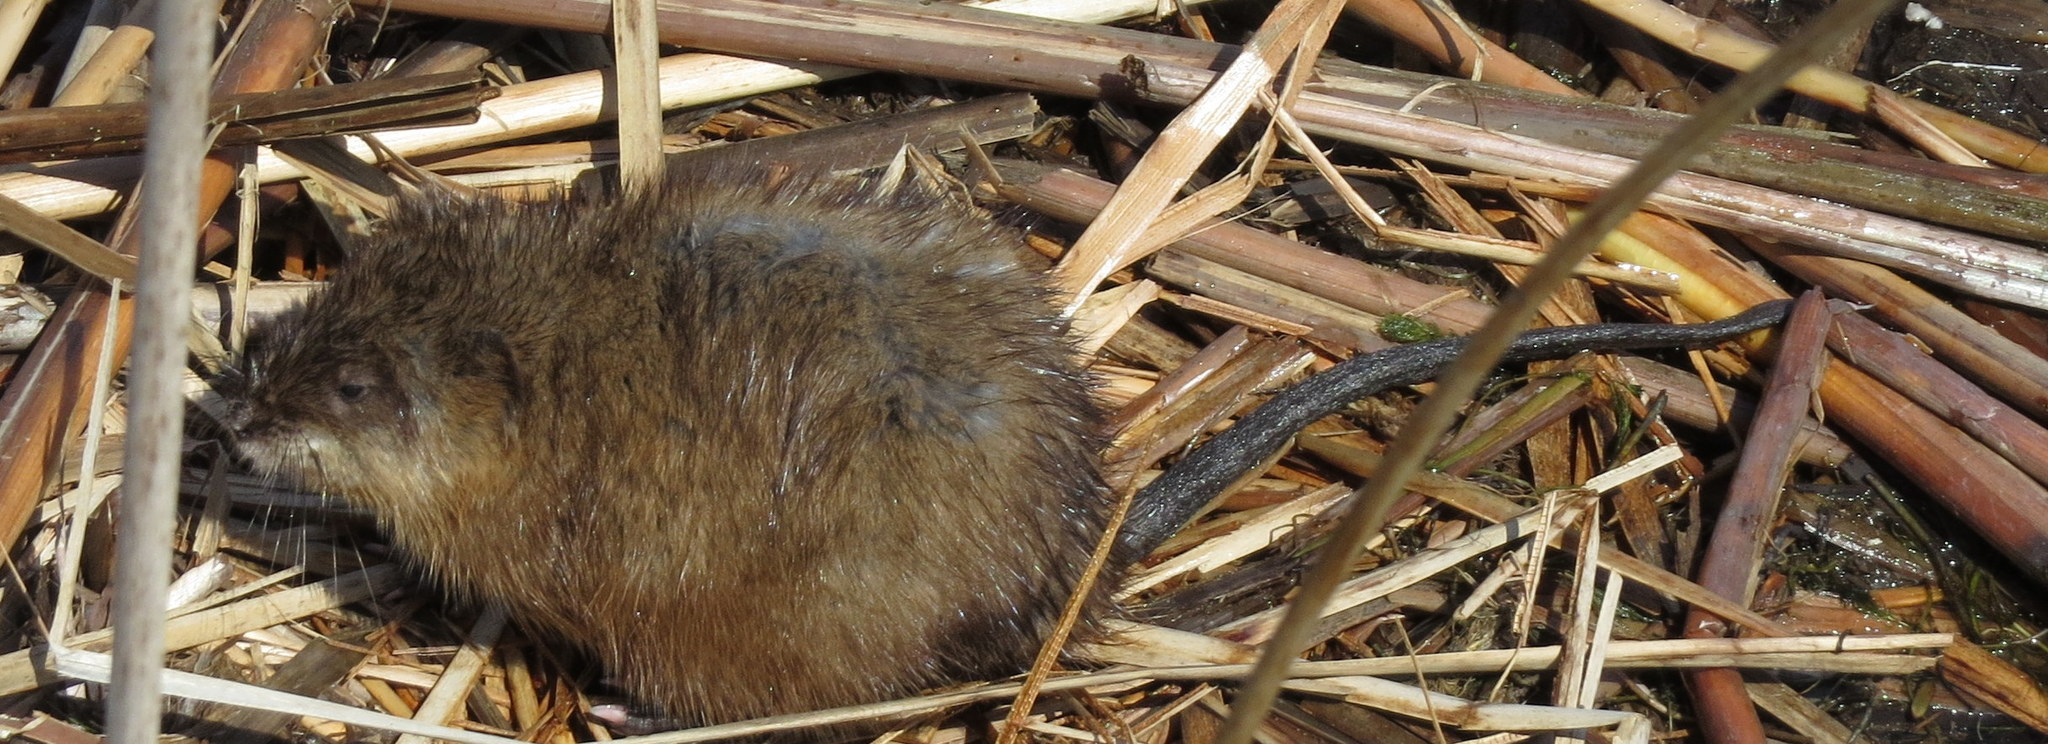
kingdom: Animalia
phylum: Chordata
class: Mammalia
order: Rodentia
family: Cricetidae
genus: Ondatra
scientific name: Ondatra zibethicus
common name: Muskrat
